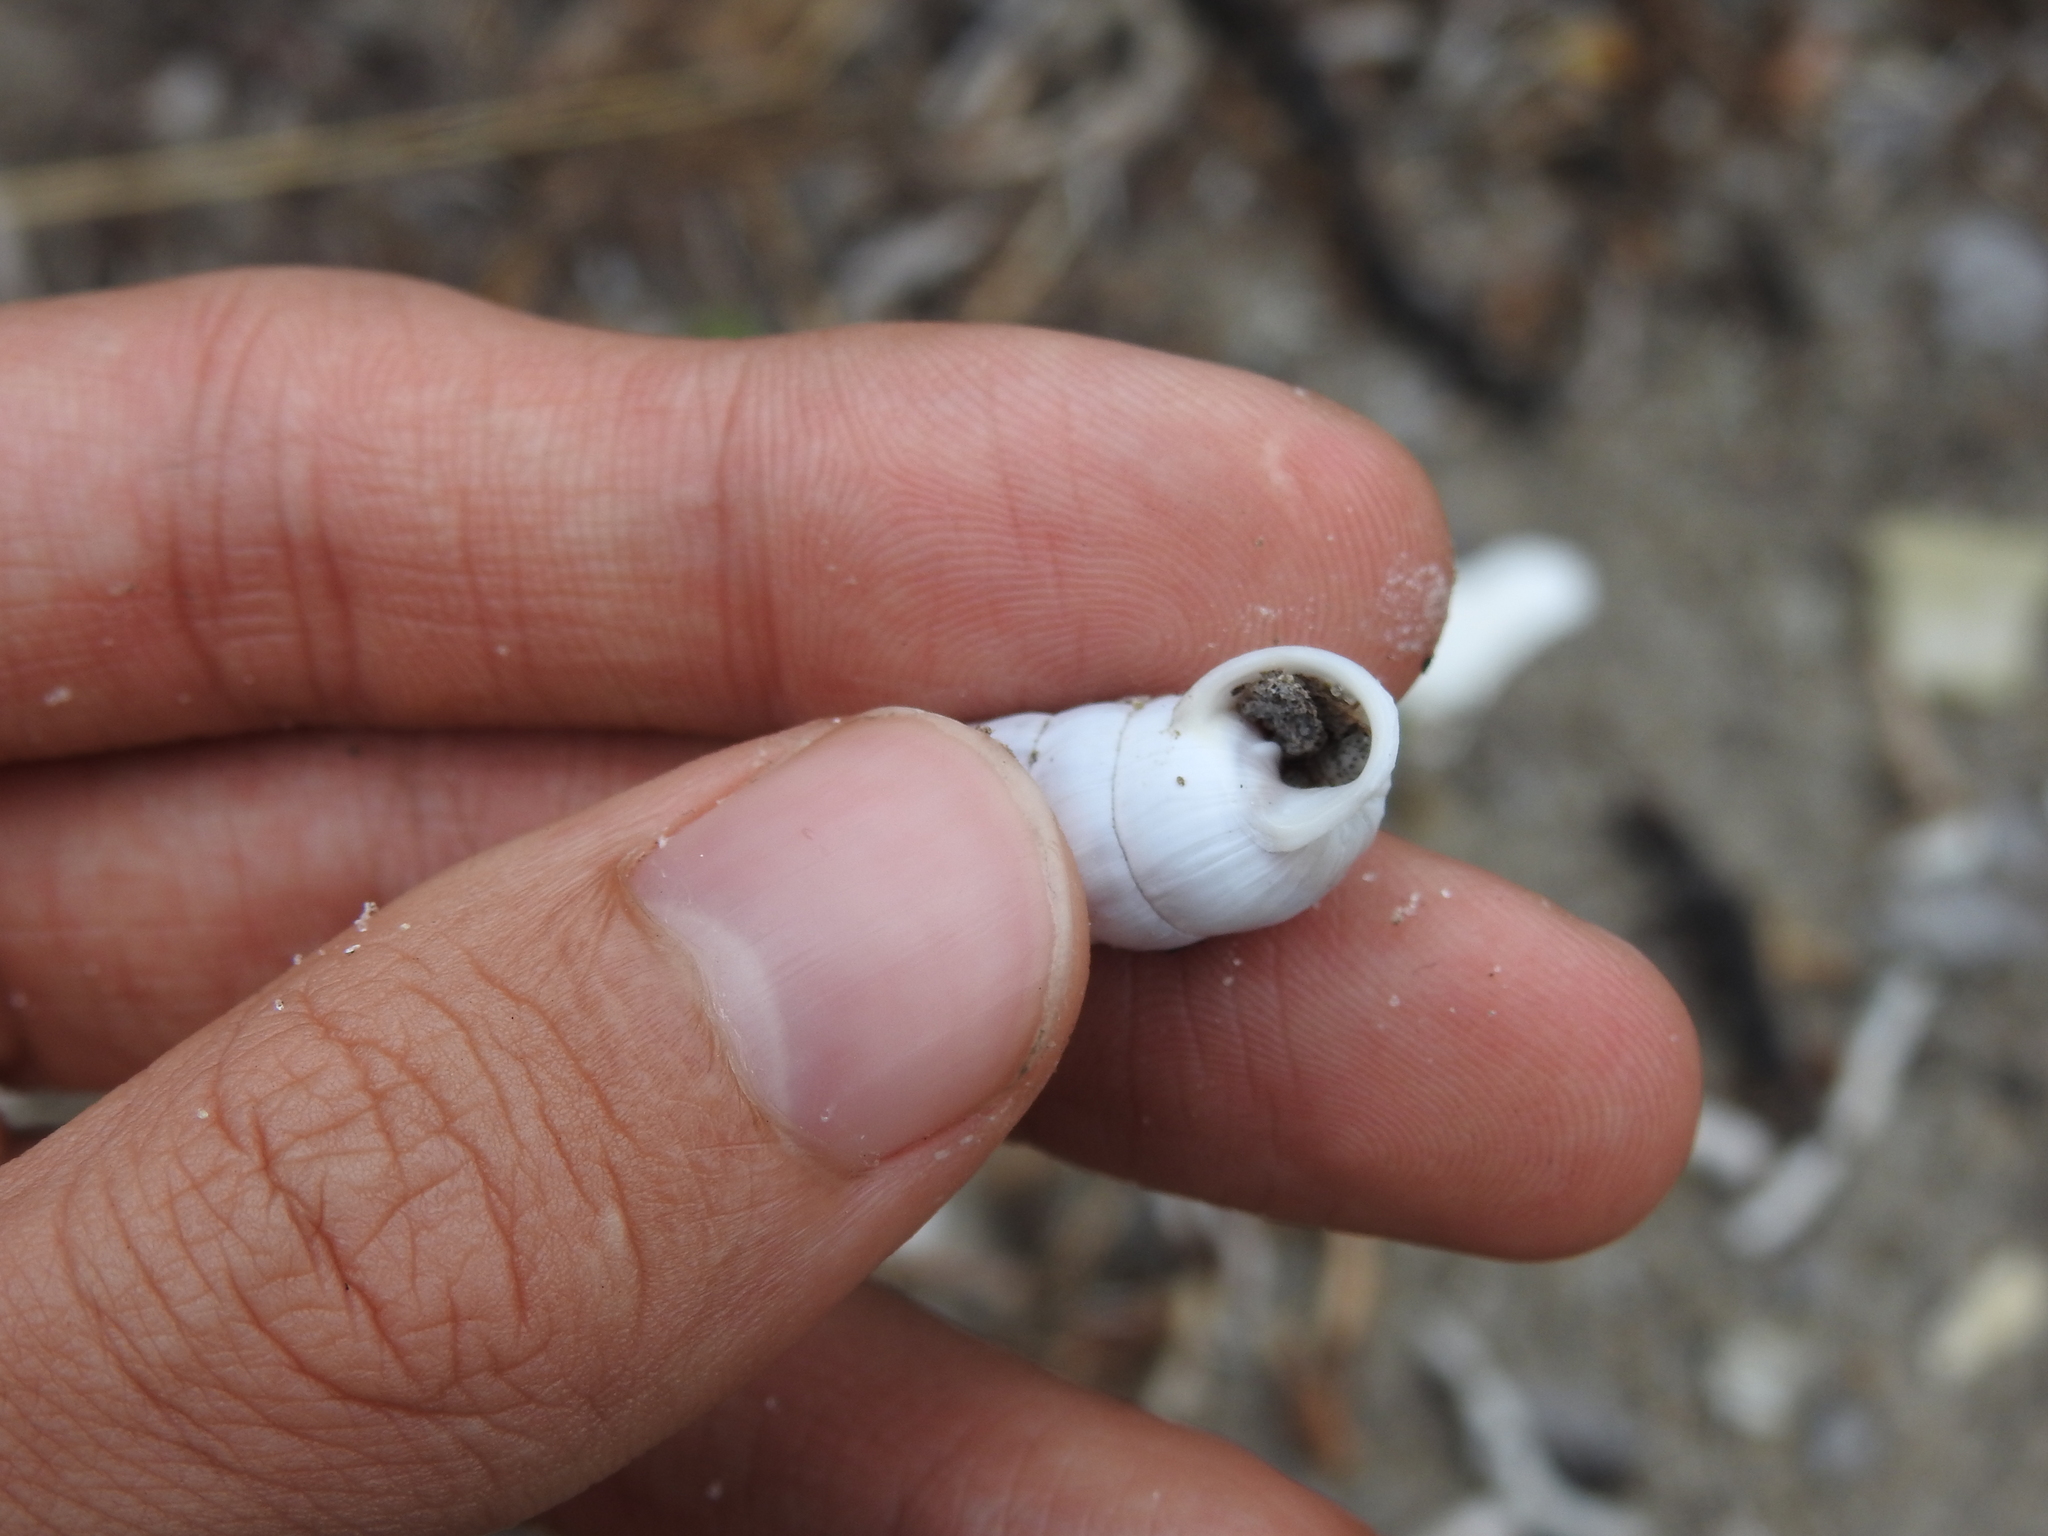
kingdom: Animalia
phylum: Mollusca
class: Gastropoda
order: Stylommatophora
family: Cerionidae
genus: Cerion
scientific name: Cerion incanum
